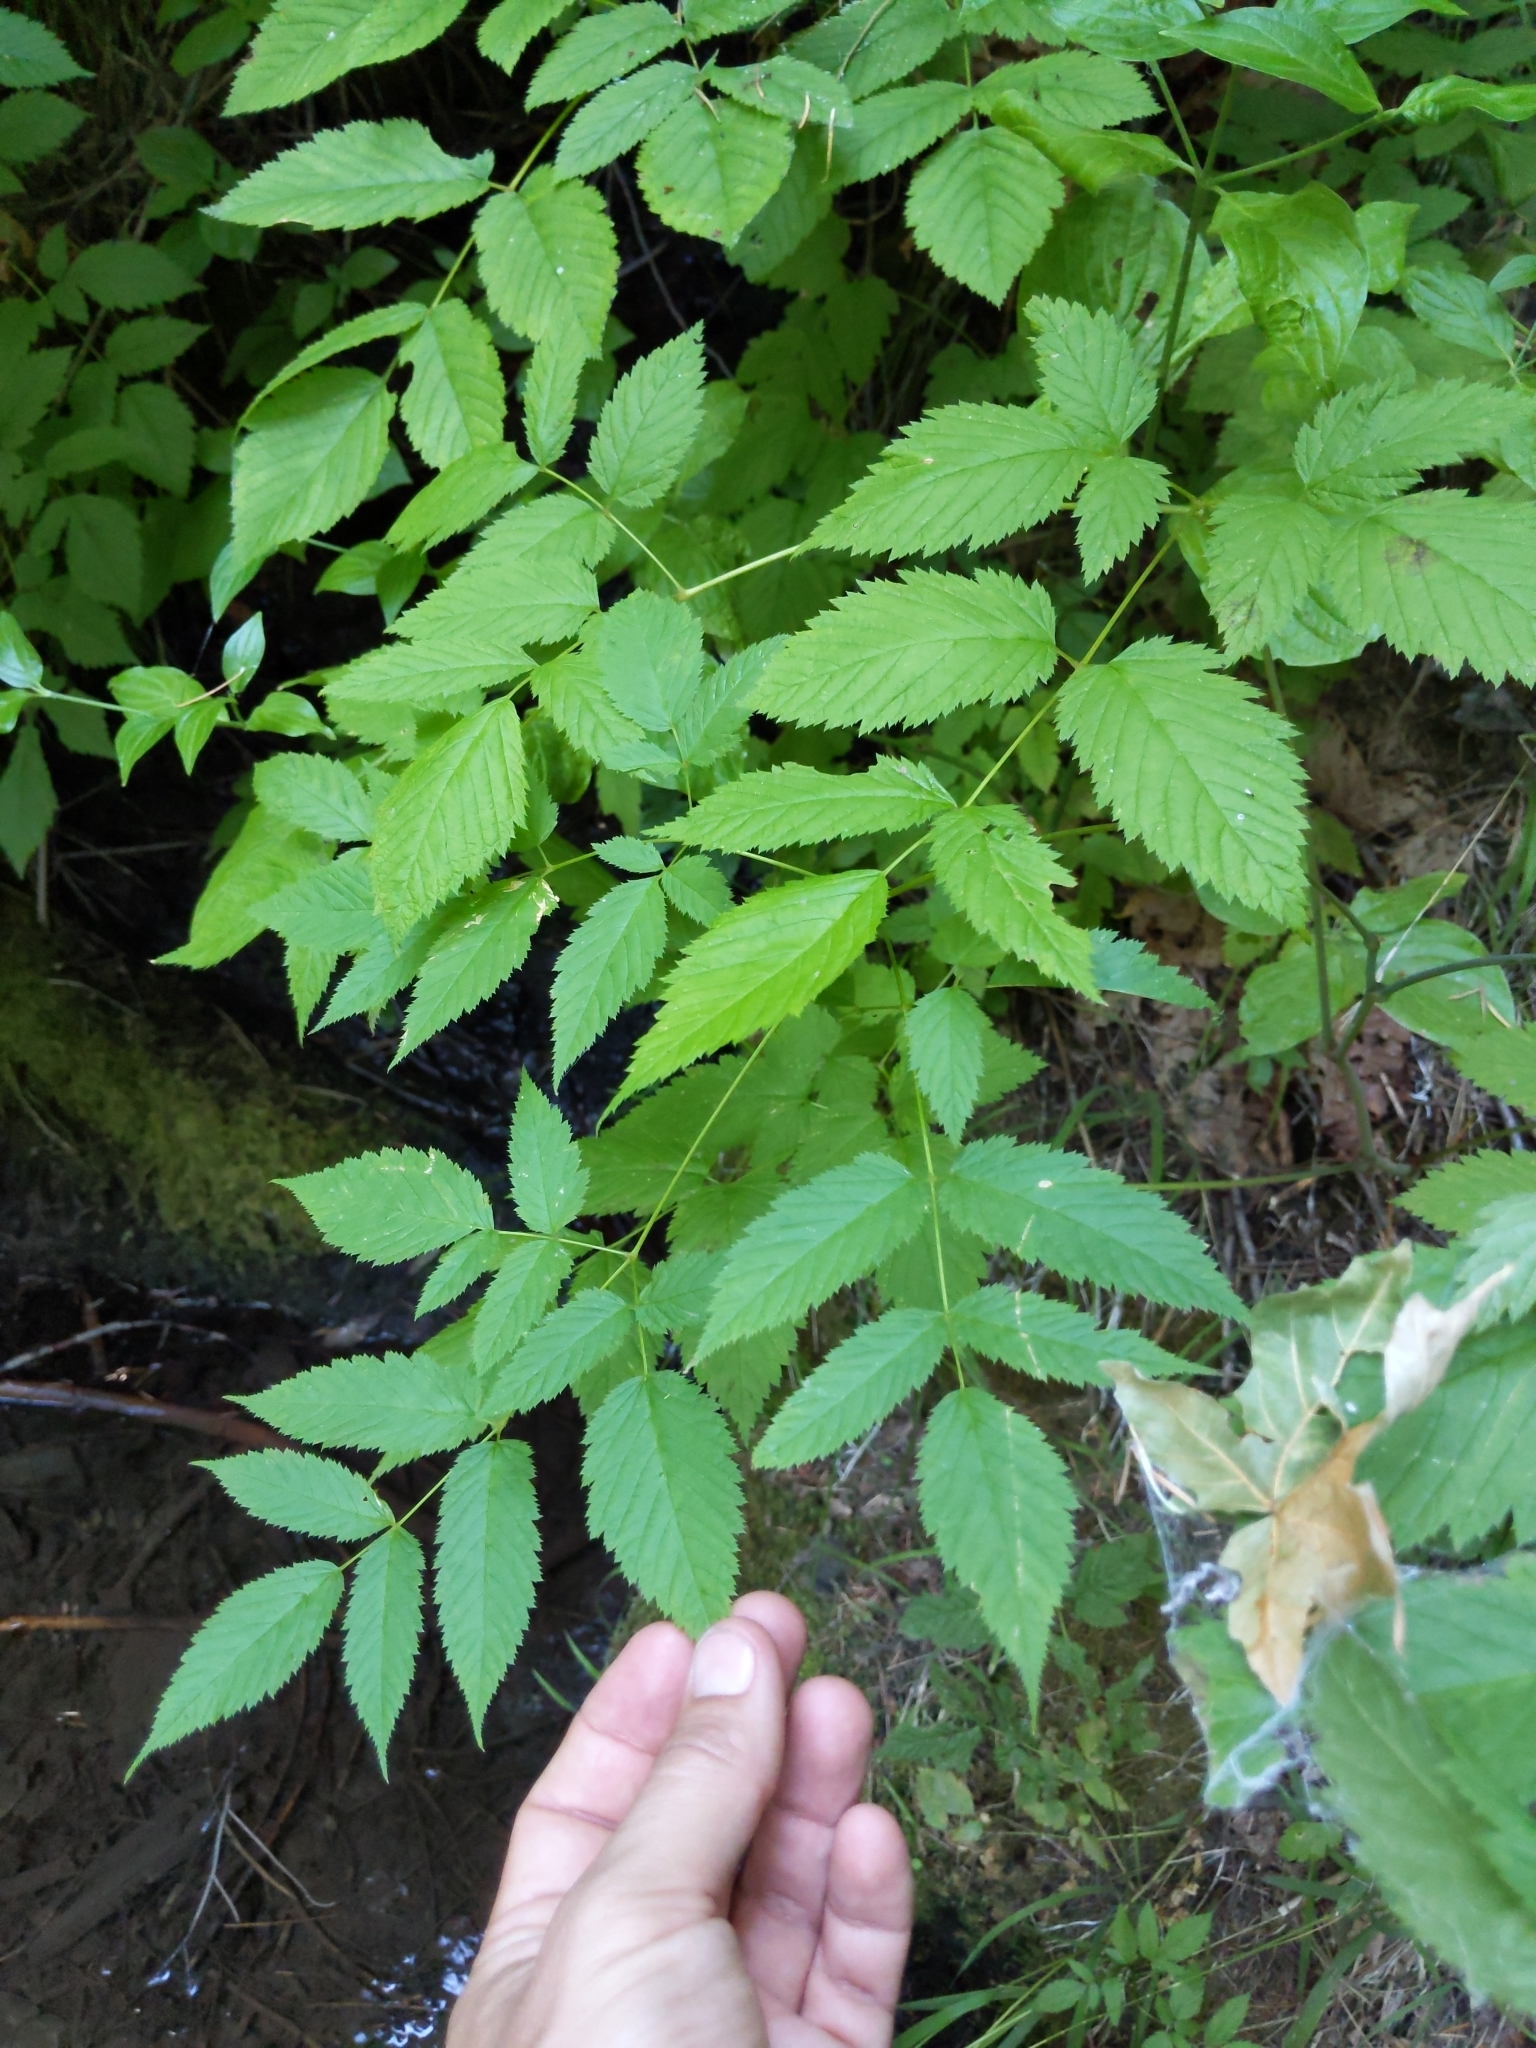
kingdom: Plantae
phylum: Tracheophyta
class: Magnoliopsida
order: Rosales
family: Rosaceae
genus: Aruncus
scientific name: Aruncus dioicus
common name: Buck's-beard
